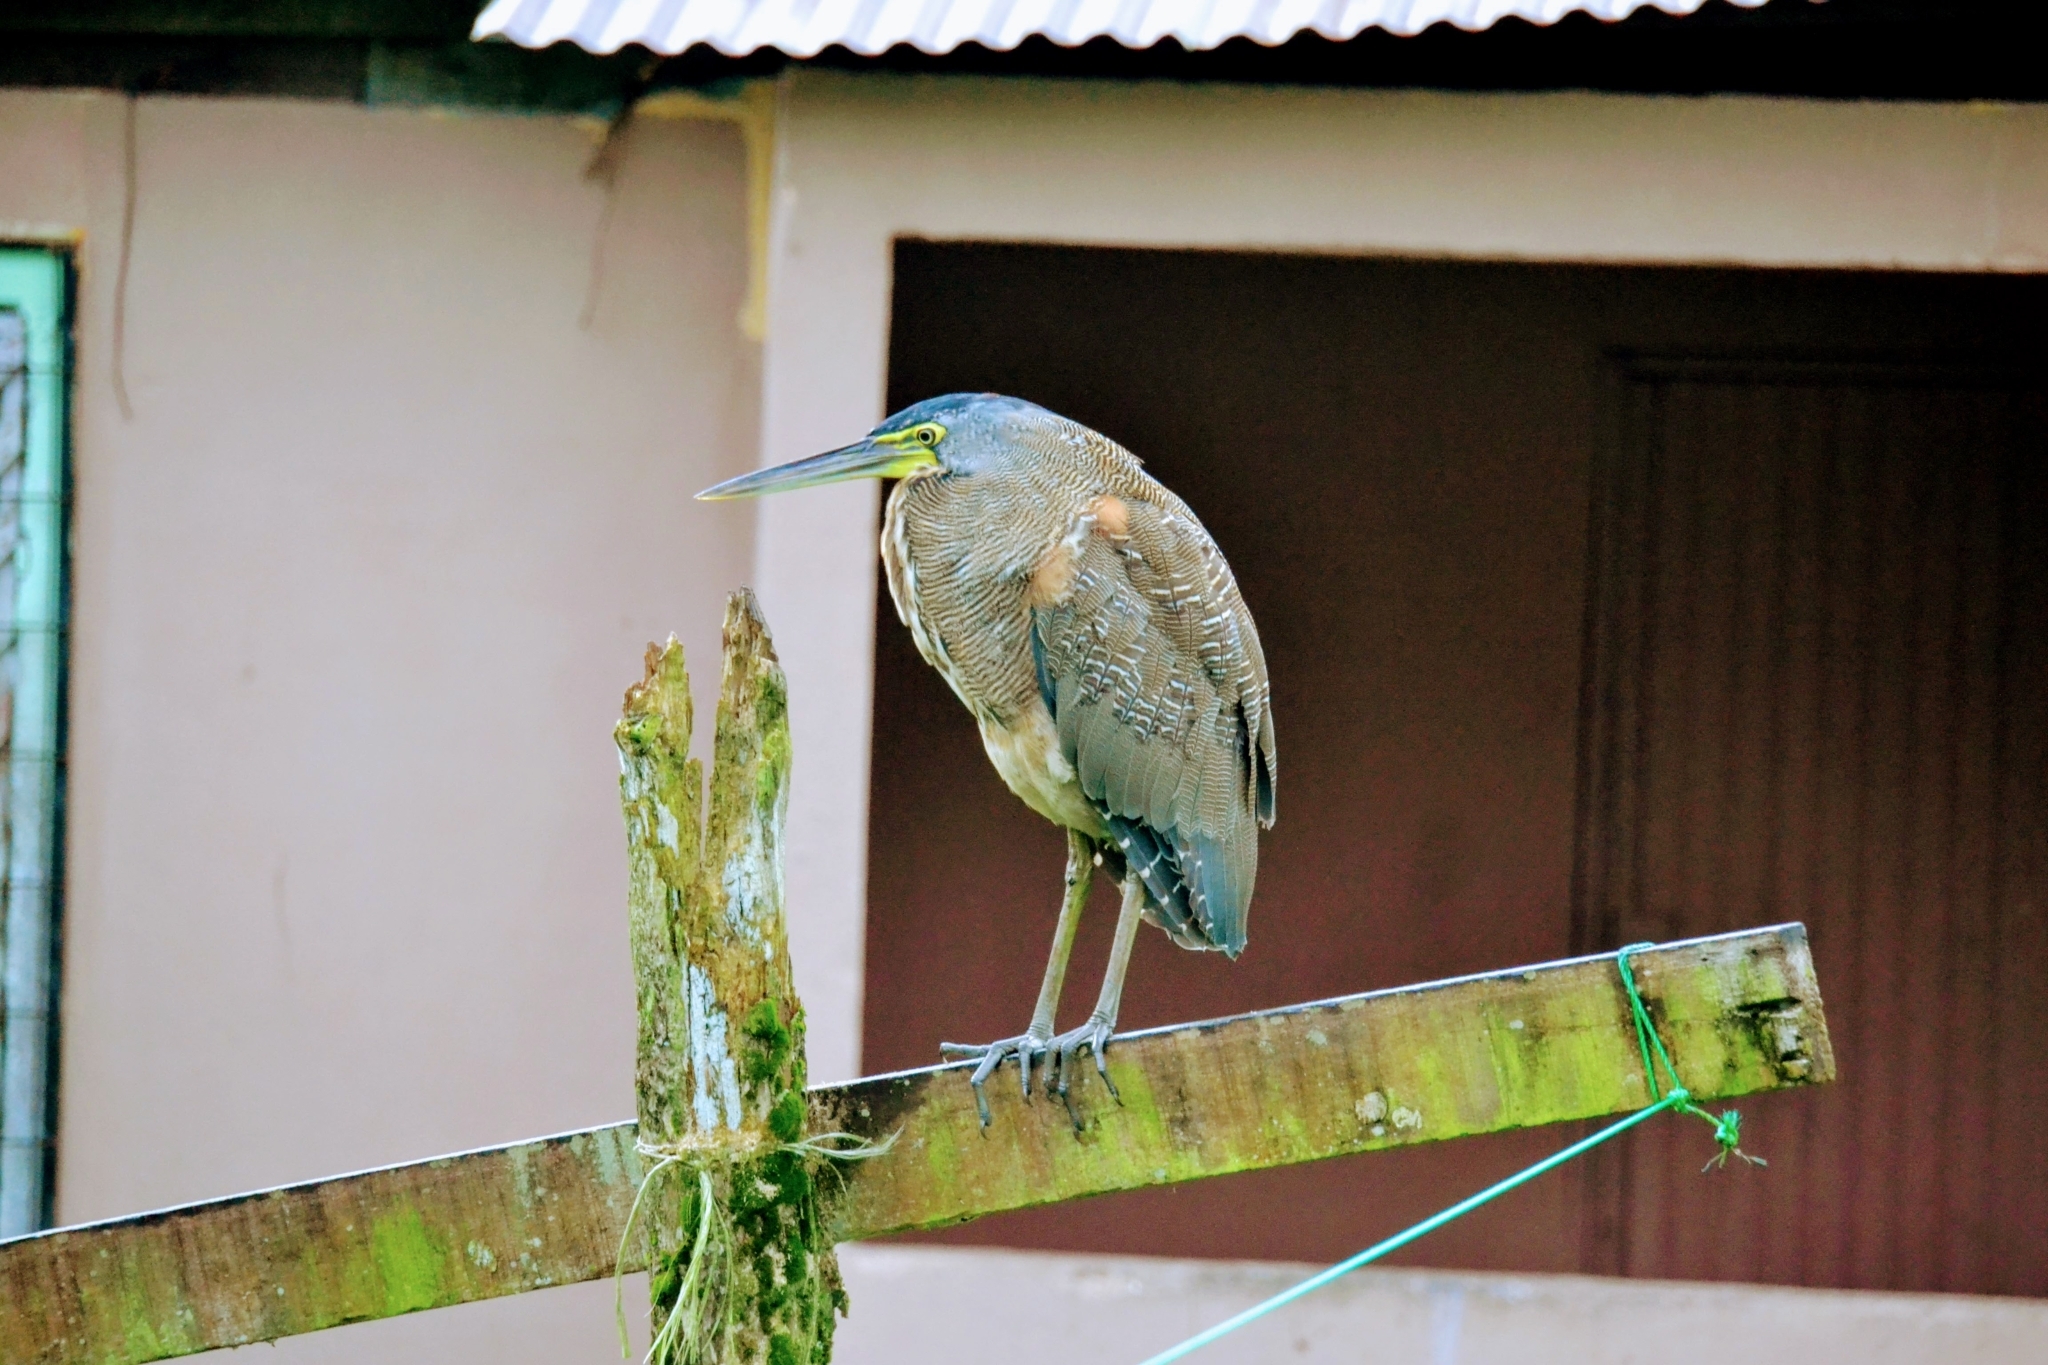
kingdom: Animalia
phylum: Chordata
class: Aves
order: Pelecaniformes
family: Ardeidae
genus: Tigrisoma
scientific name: Tigrisoma mexicanum
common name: Bare-throated tiger-heron
